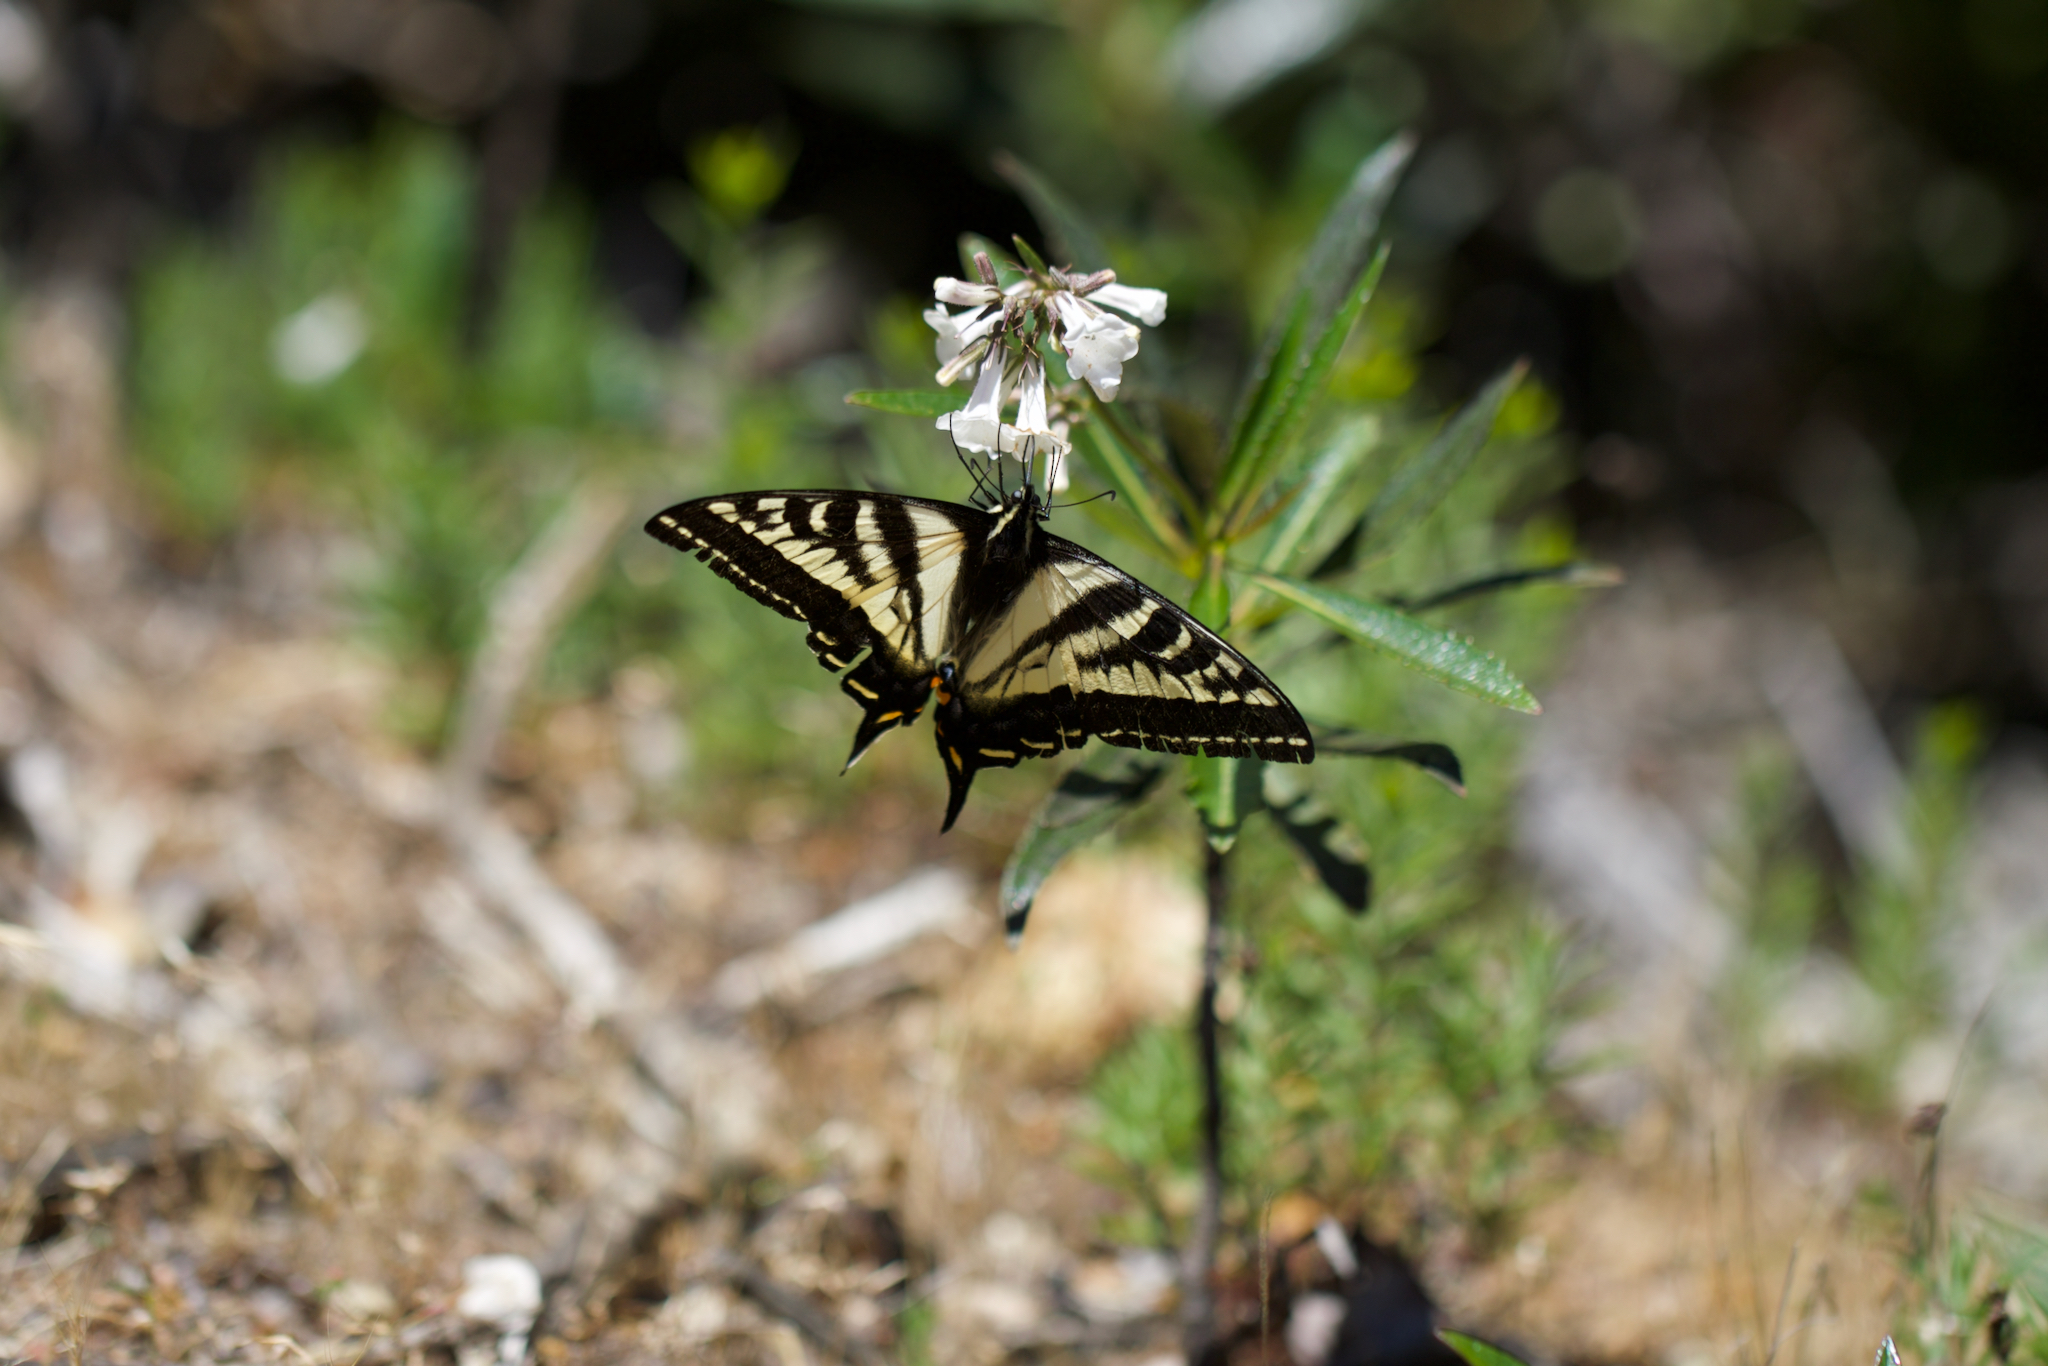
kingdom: Plantae
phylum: Tracheophyta
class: Magnoliopsida
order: Boraginales
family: Namaceae
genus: Eriodictyon
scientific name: Eriodictyon californicum
